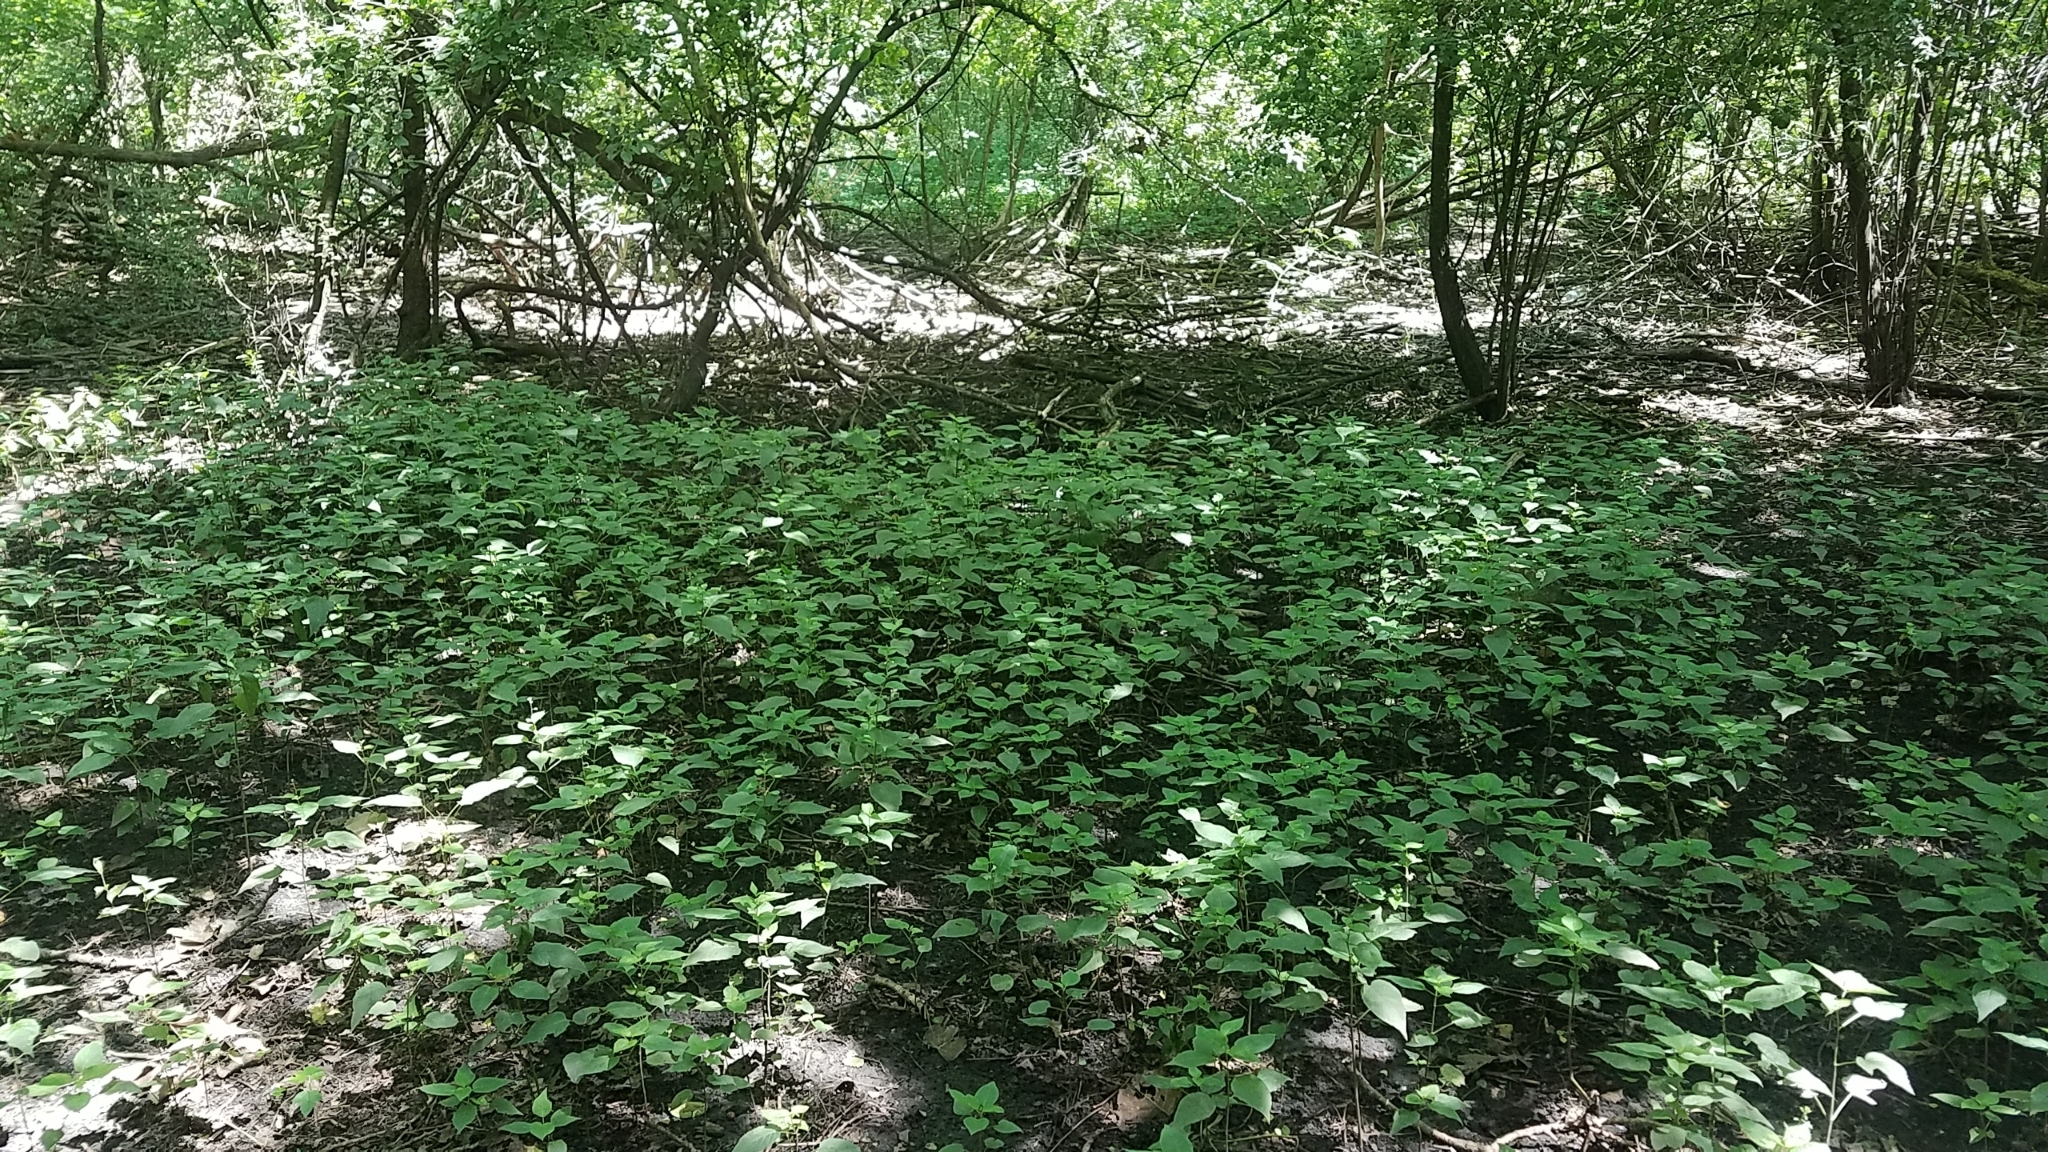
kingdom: Plantae
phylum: Tracheophyta
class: Magnoliopsida
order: Myrtales
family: Onagraceae
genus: Circaea
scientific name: Circaea canadensis
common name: Broad-leaved enchanter's nightshade
